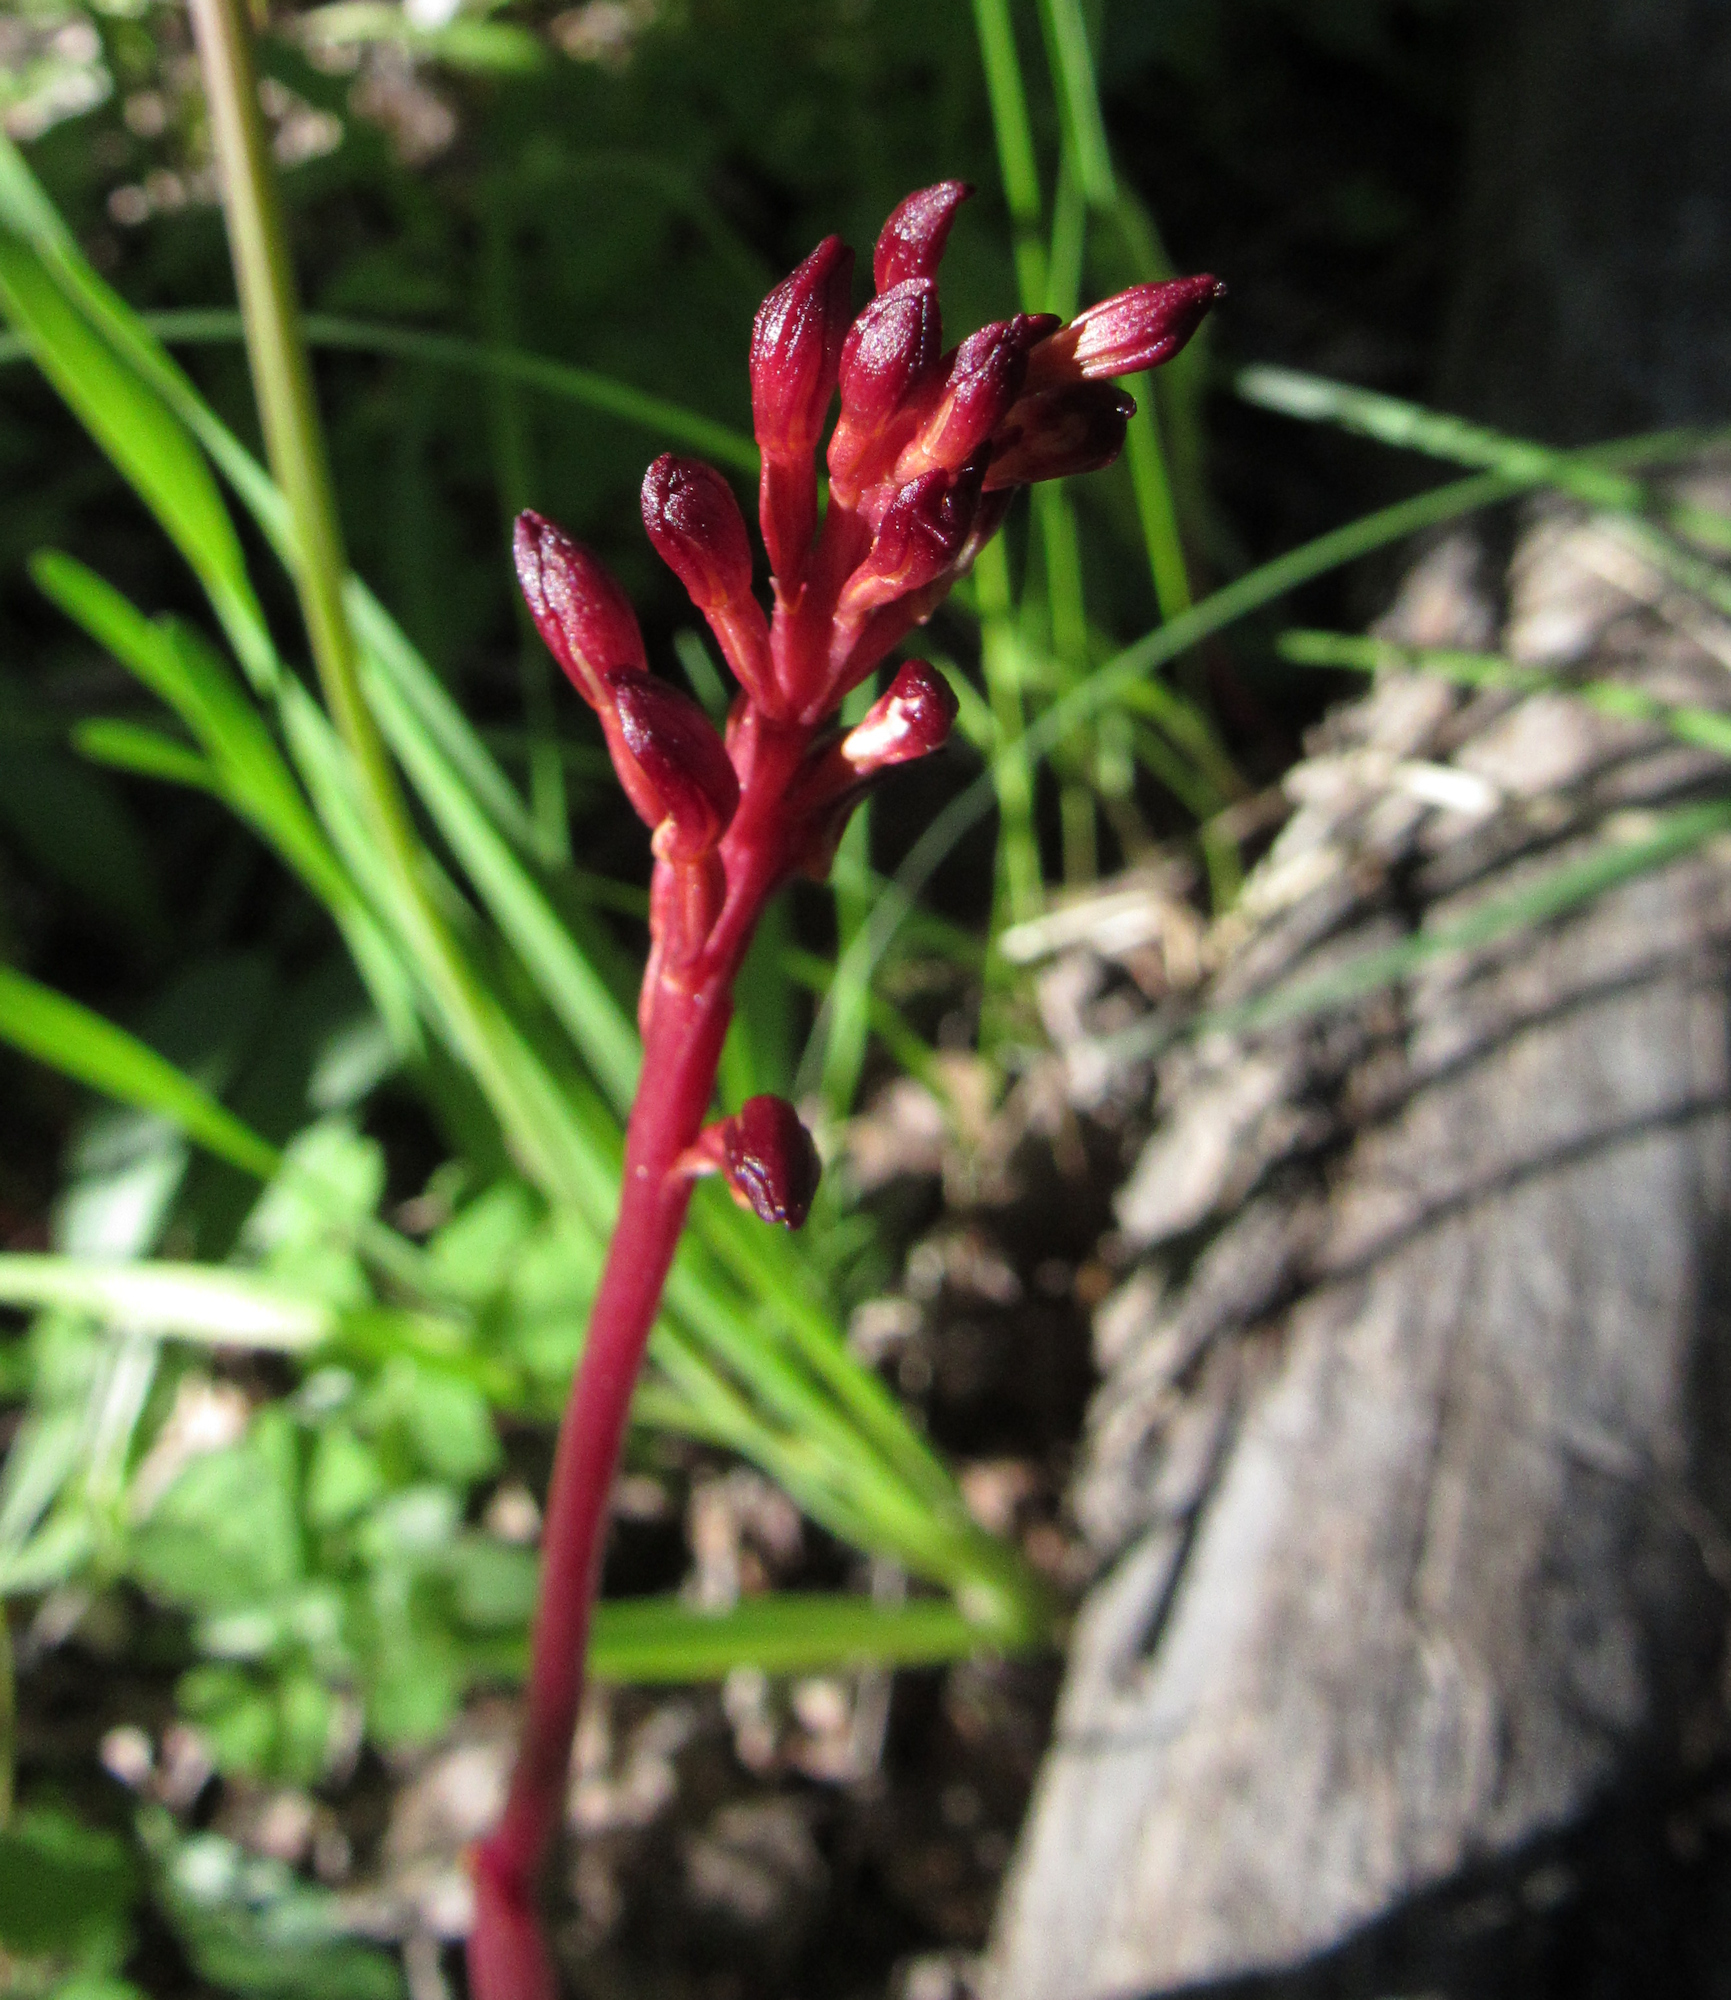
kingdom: Plantae
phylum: Tracheophyta
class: Liliopsida
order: Asparagales
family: Orchidaceae
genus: Corallorhiza
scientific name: Corallorhiza maculata
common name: Spotted coralroot
